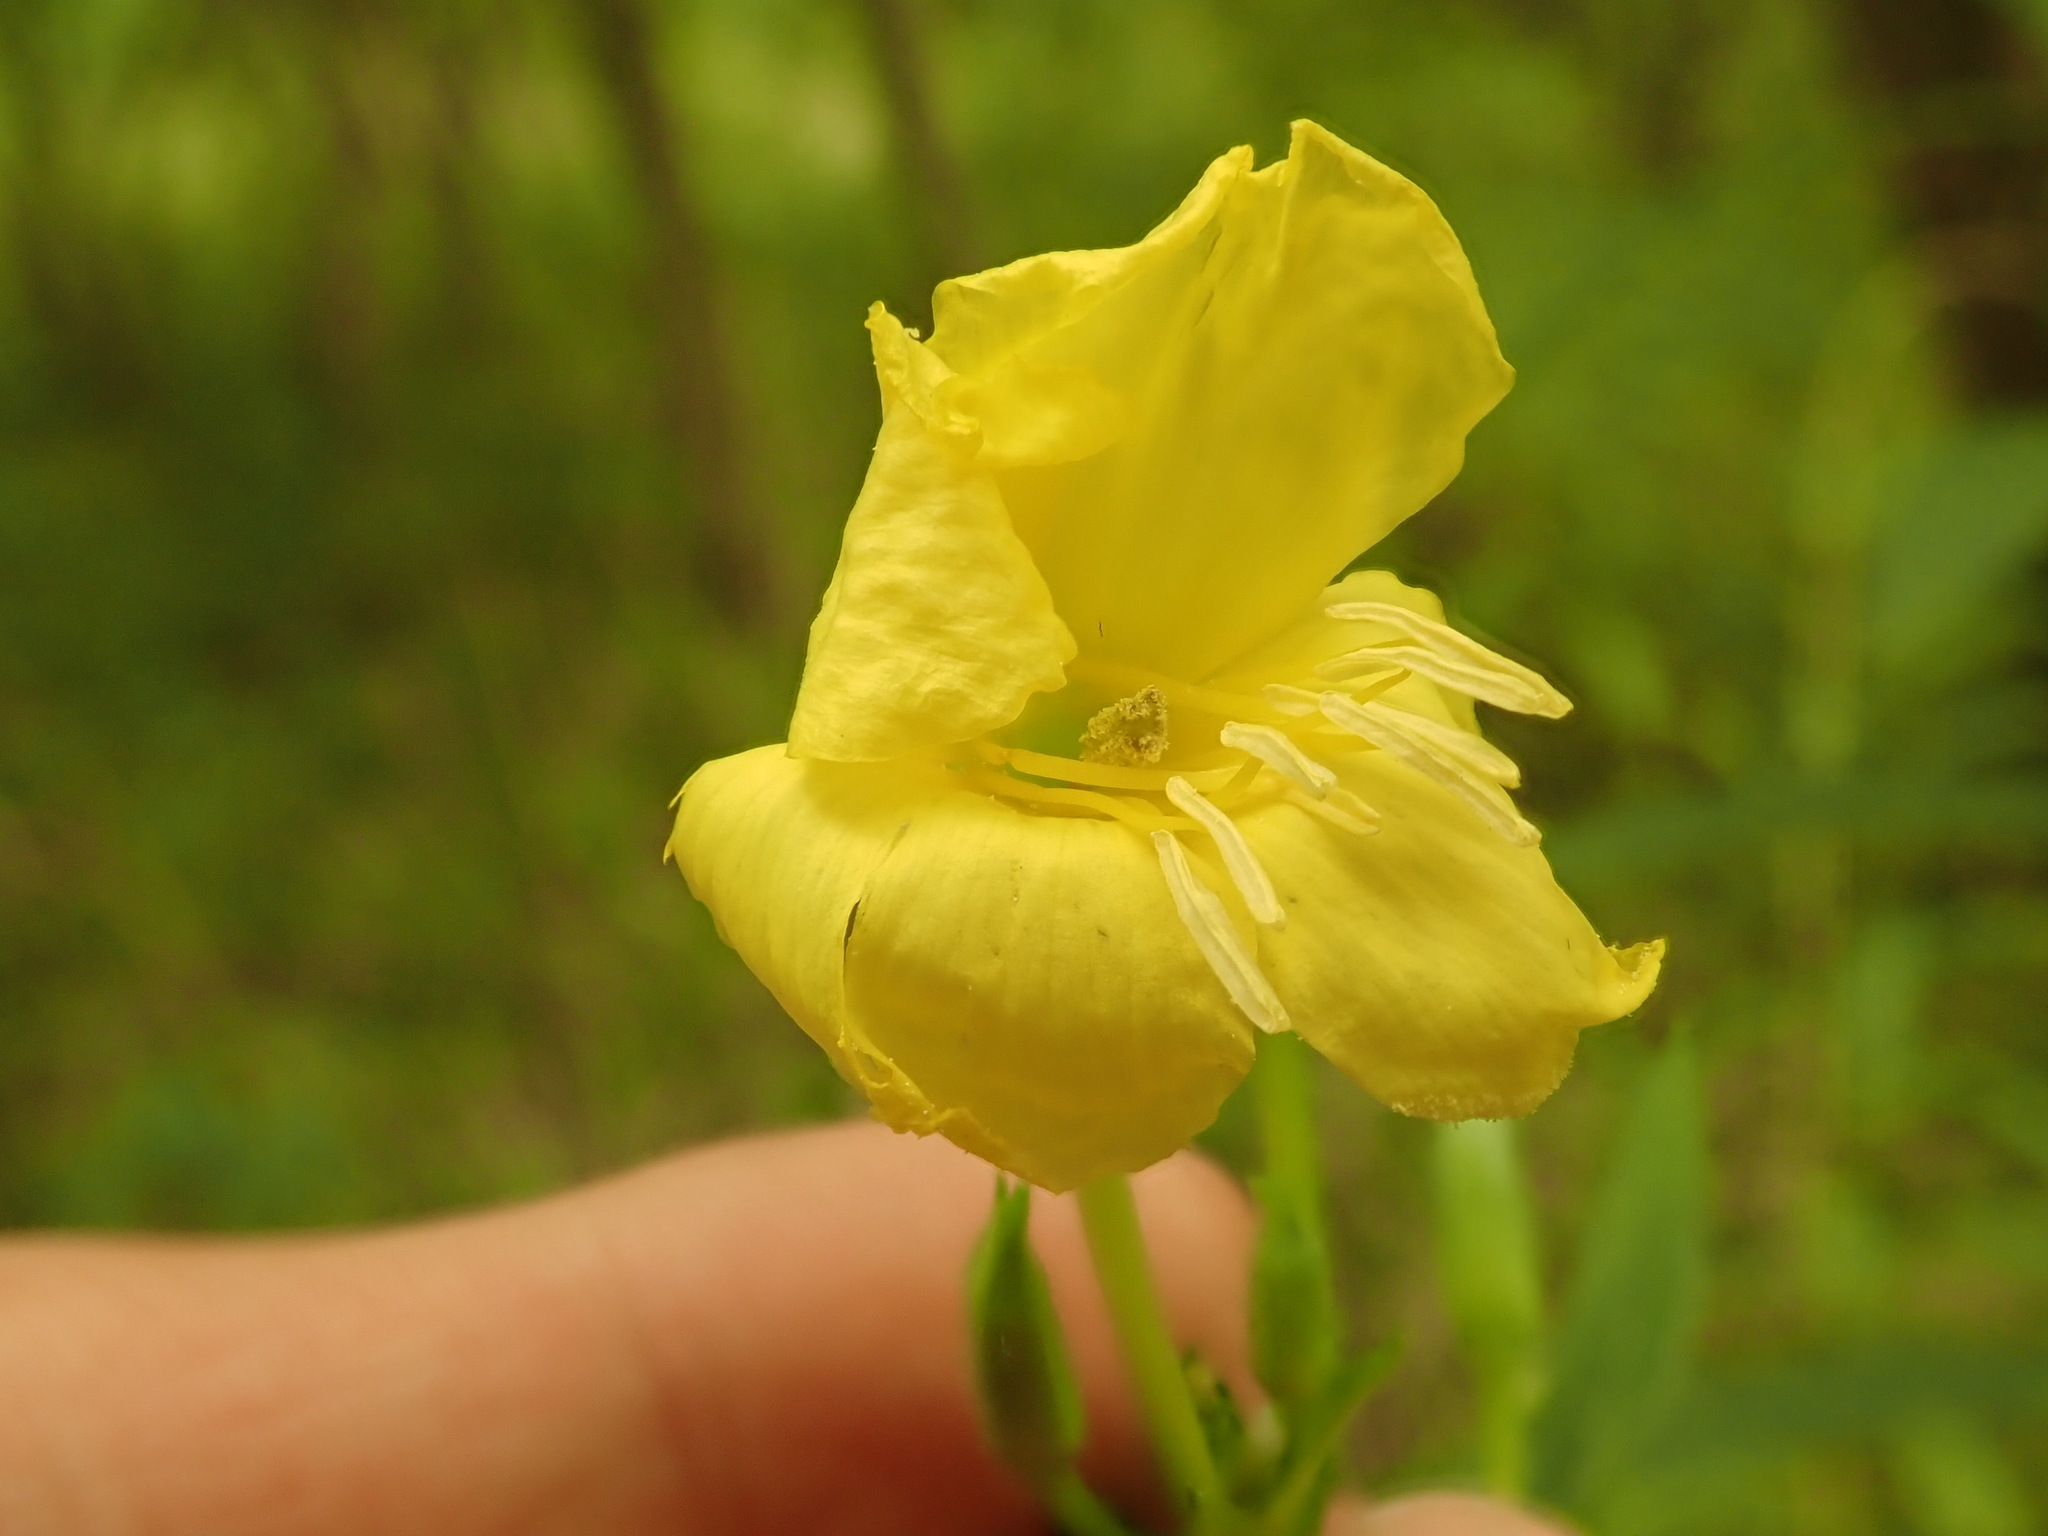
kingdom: Plantae
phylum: Tracheophyta
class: Magnoliopsida
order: Myrtales
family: Onagraceae
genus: Oenothera
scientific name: Oenothera biennis
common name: Common evening-primrose
